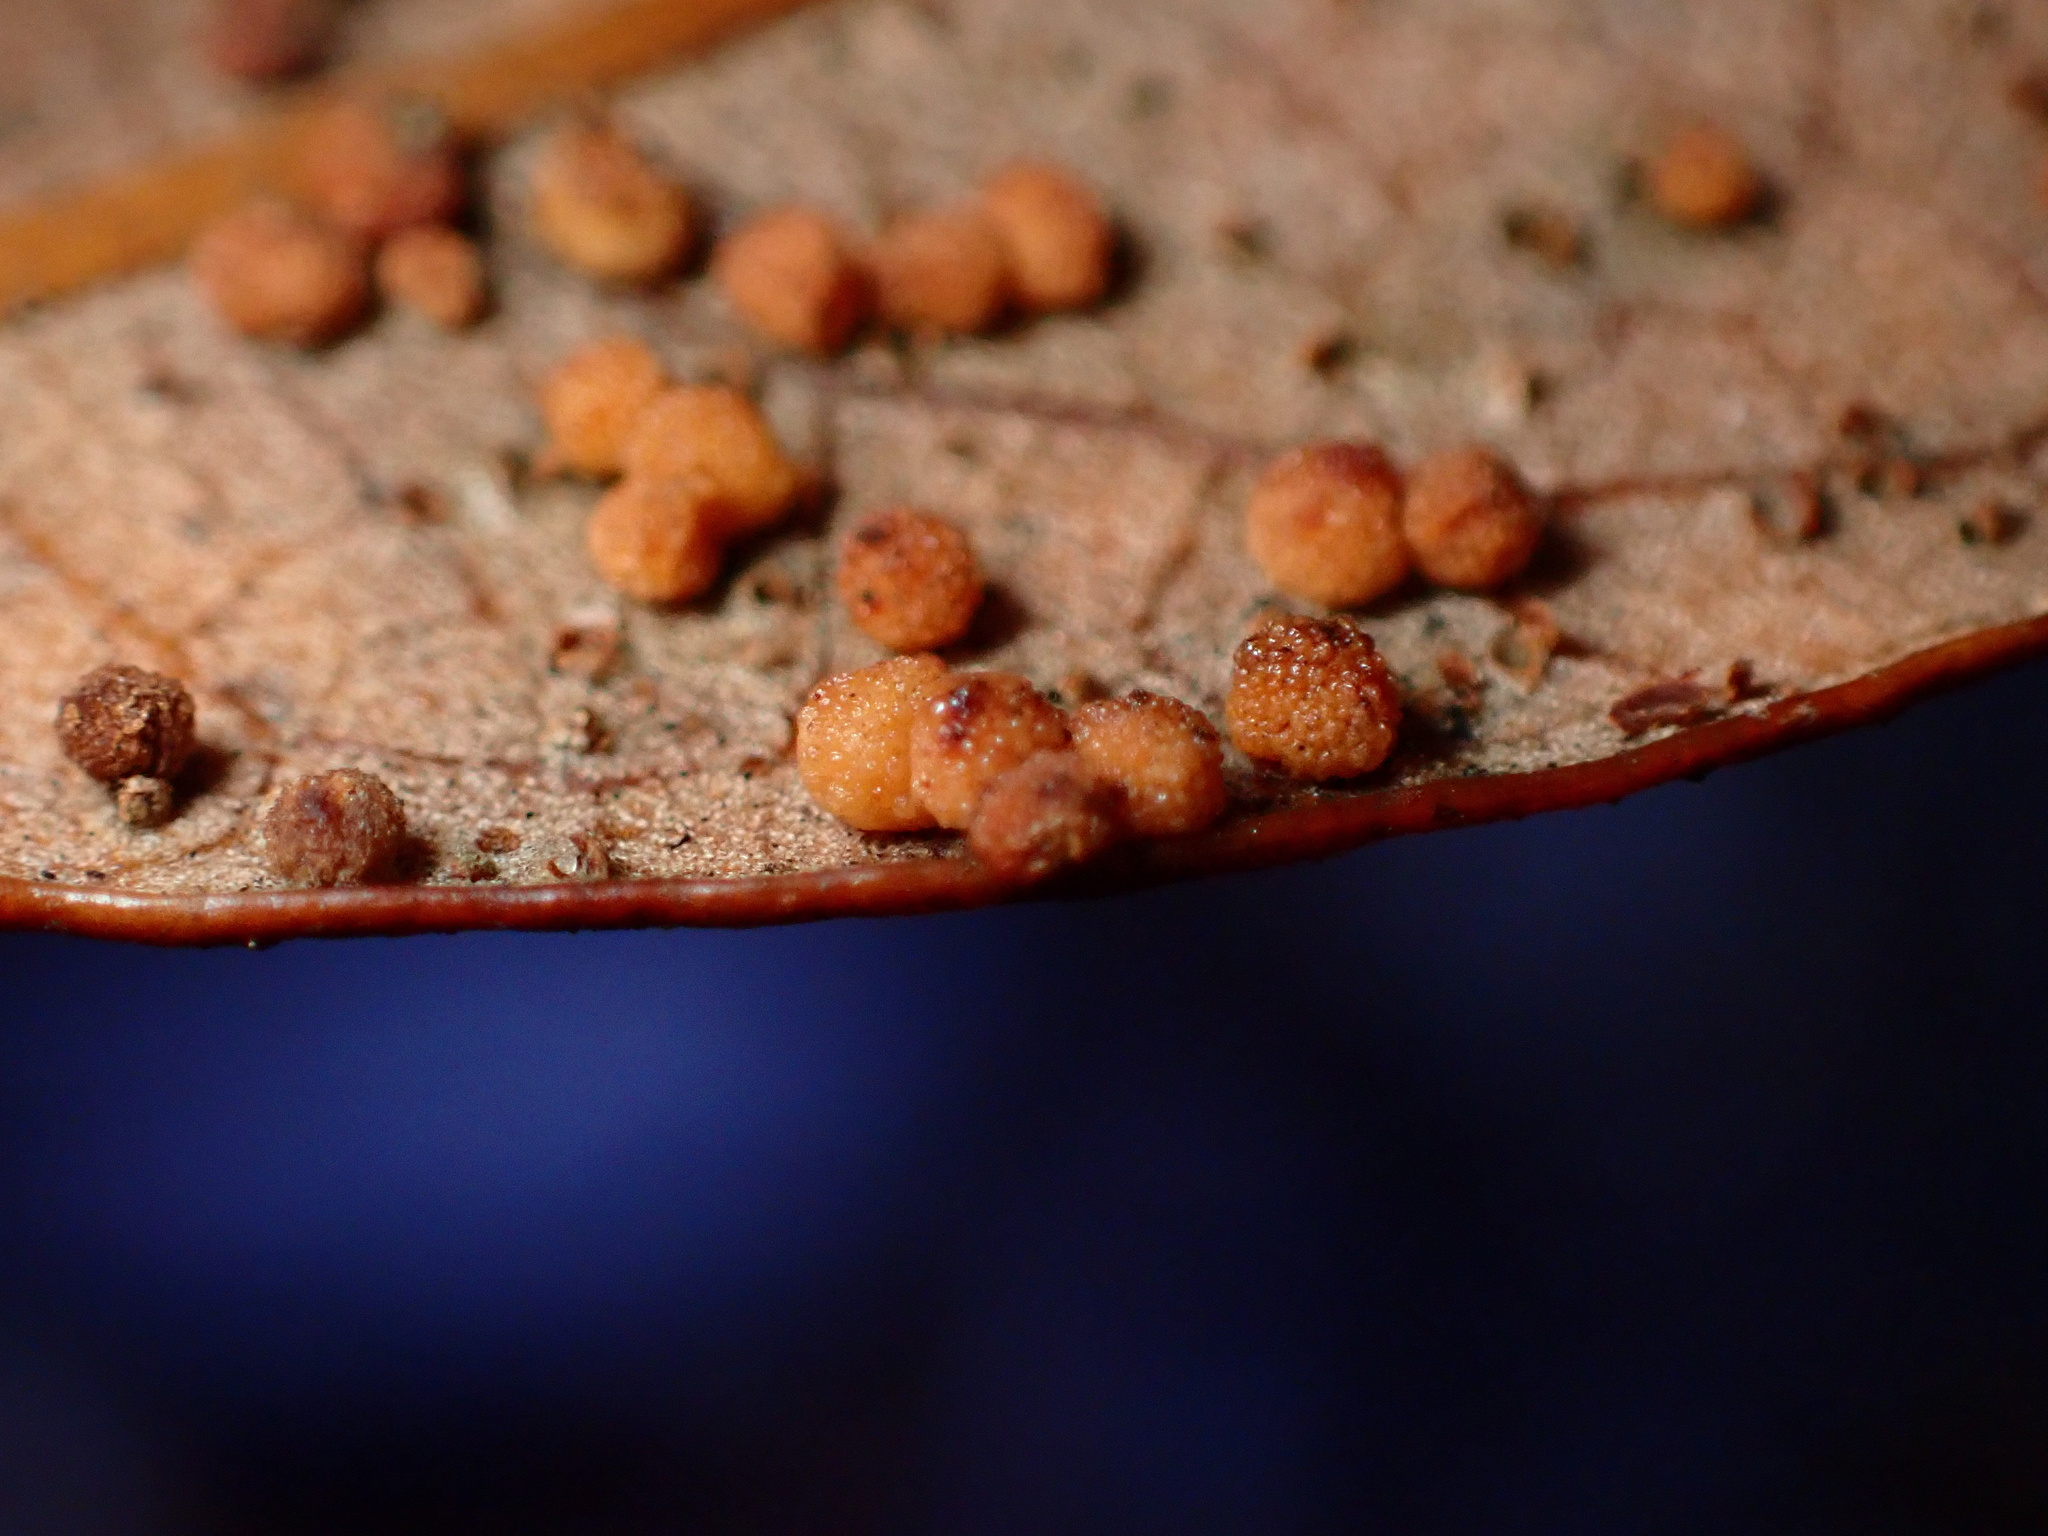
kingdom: Animalia
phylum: Arthropoda
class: Insecta
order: Hymenoptera
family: Cynipidae
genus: Neuroterus
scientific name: Neuroterus saltarius
